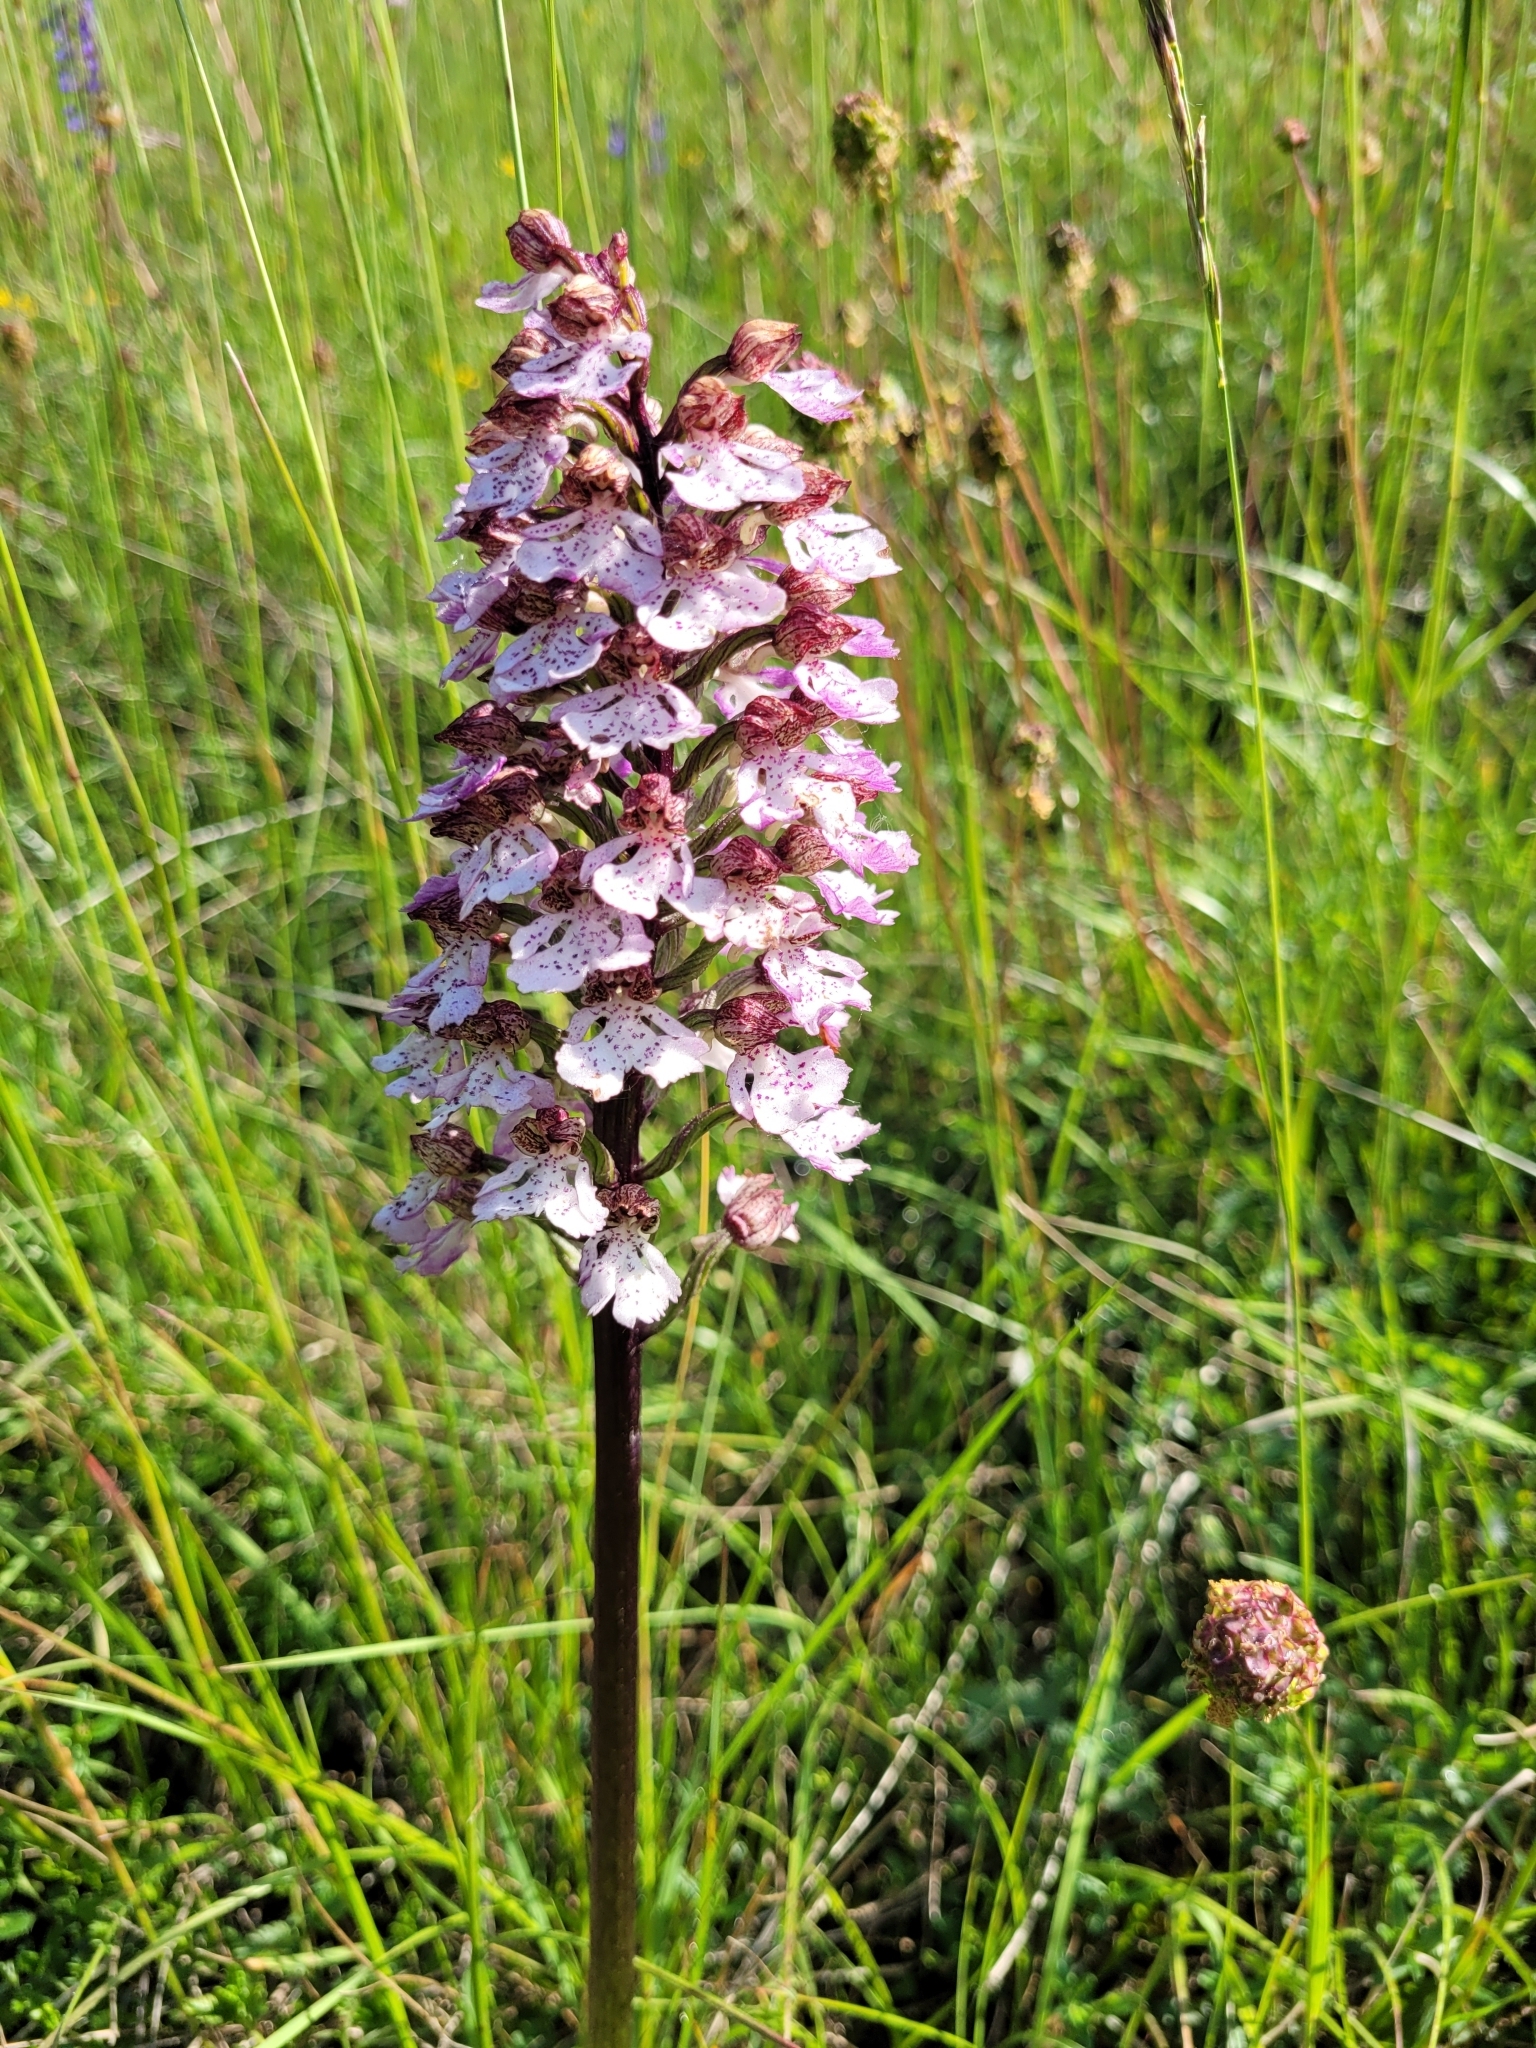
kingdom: Plantae
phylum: Tracheophyta
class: Liliopsida
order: Asparagales
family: Orchidaceae
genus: Orchis
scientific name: Orchis purpurea
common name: Lady orchid
